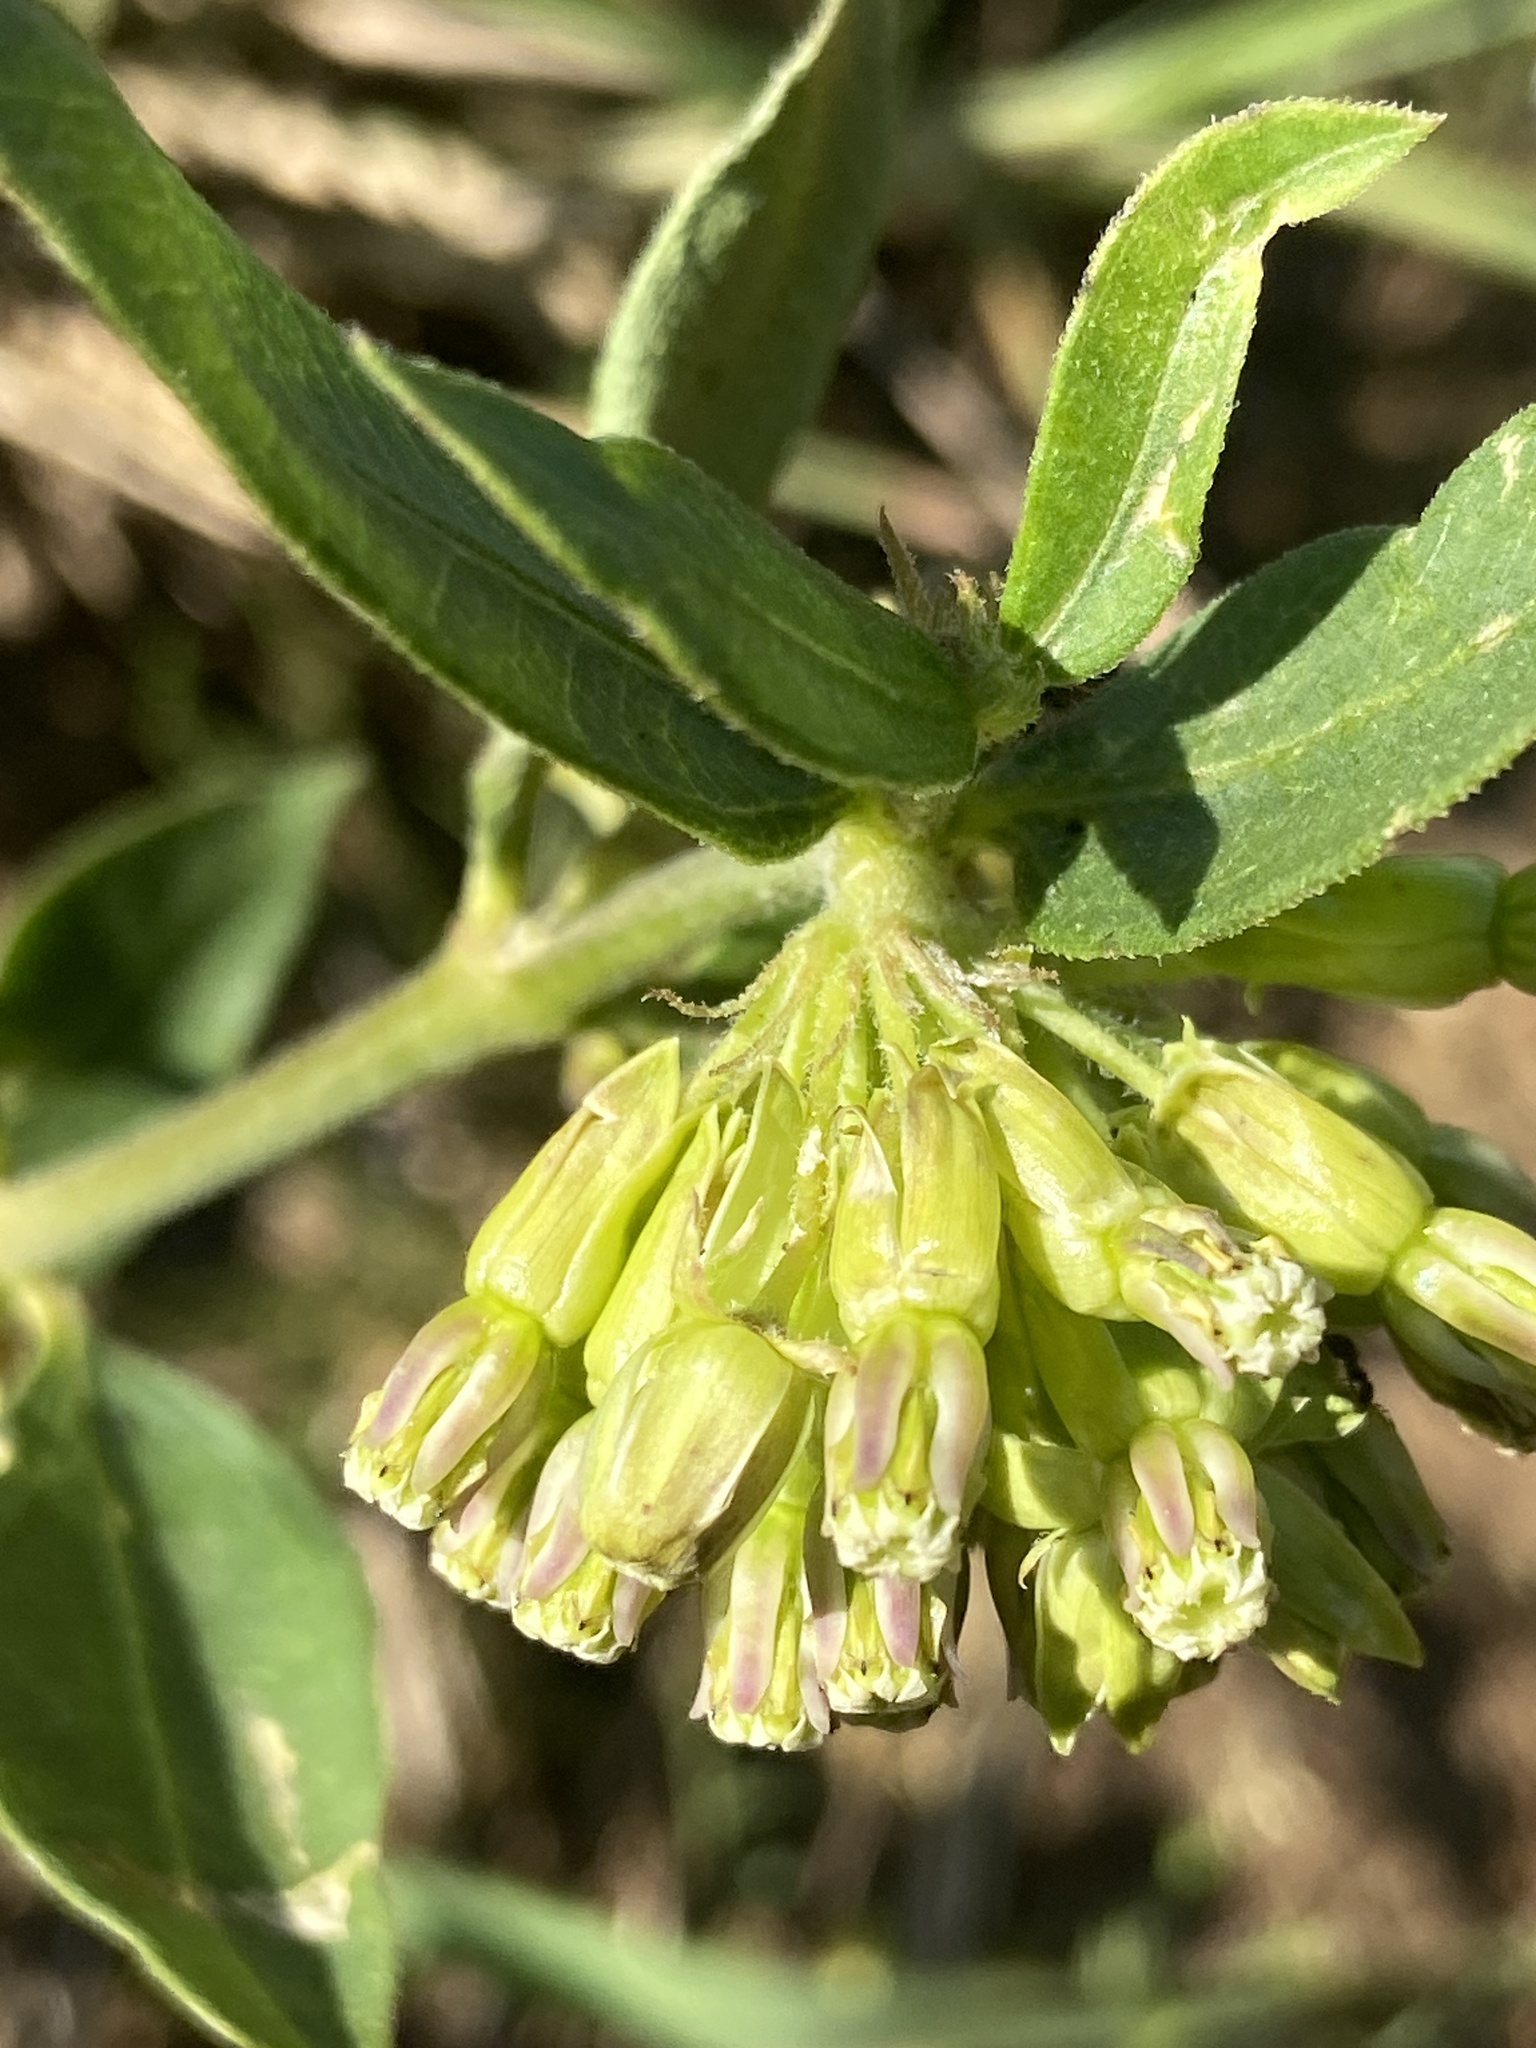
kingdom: Plantae
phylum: Tracheophyta
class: Magnoliopsida
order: Gentianales
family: Apocynaceae
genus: Asclepias
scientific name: Asclepias viridiflora
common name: Green comet milkweed
